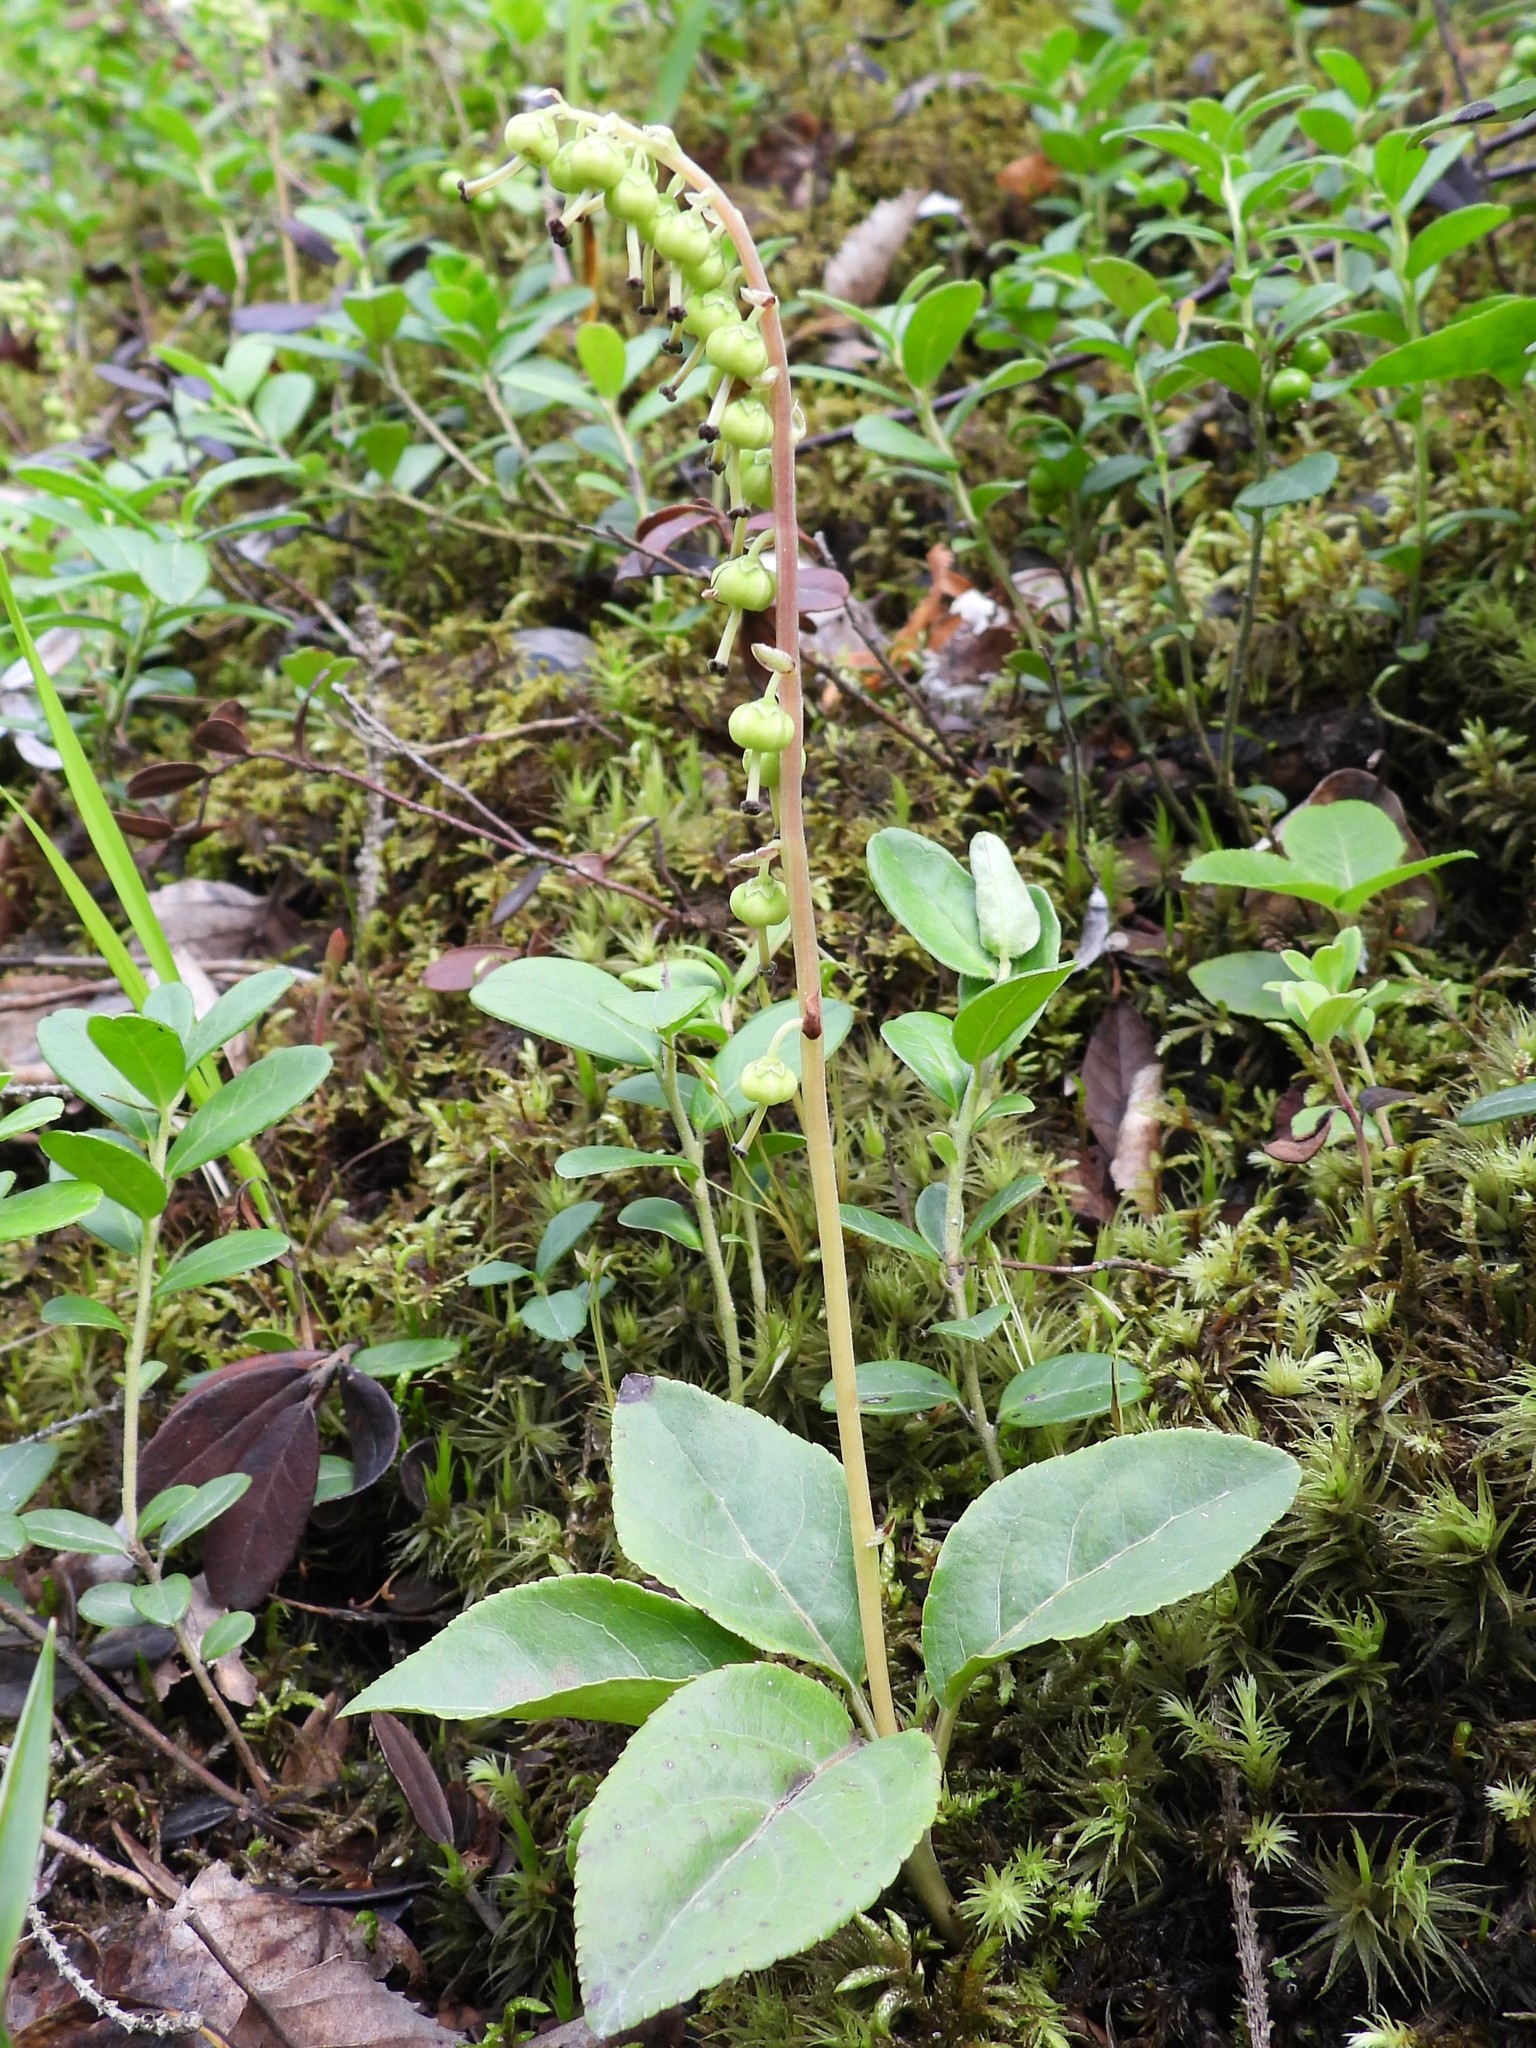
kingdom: Plantae
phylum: Tracheophyta
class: Magnoliopsida
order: Ericales
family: Ericaceae
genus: Orthilia
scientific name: Orthilia secunda
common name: One-sided orthilia
